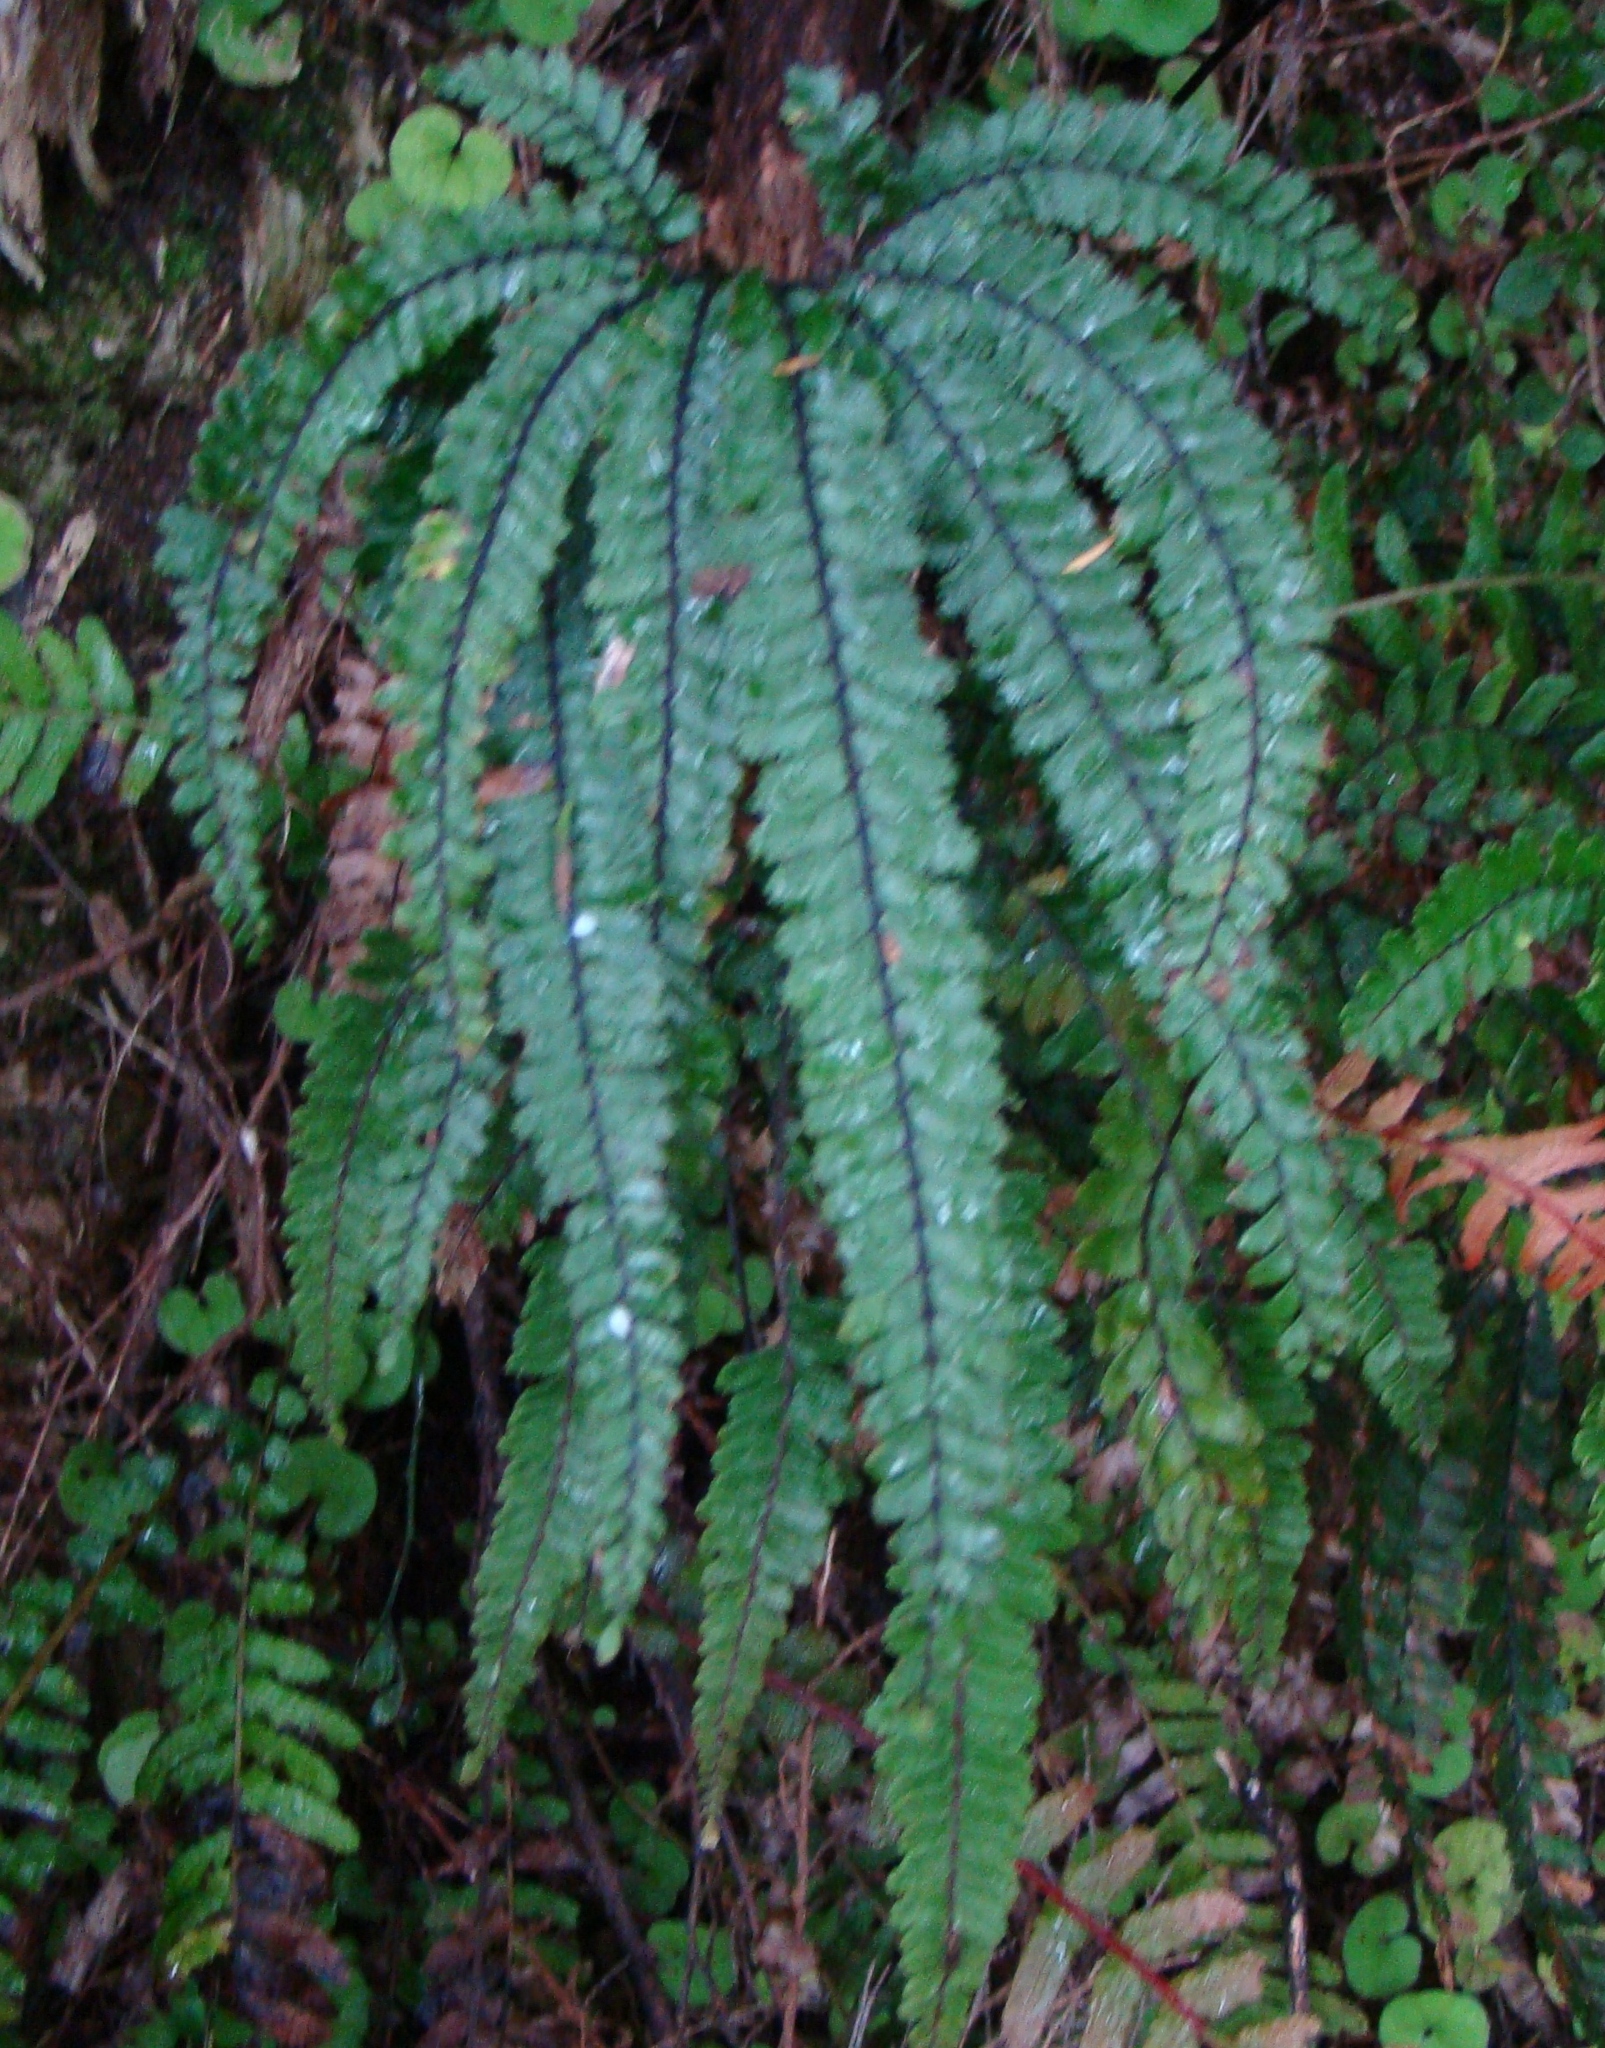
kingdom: Plantae
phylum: Tracheophyta
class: Polypodiopsida
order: Polypodiales
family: Pteridaceae
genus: Adiantum
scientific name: Adiantum hispidulum
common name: Rough maidenhair
